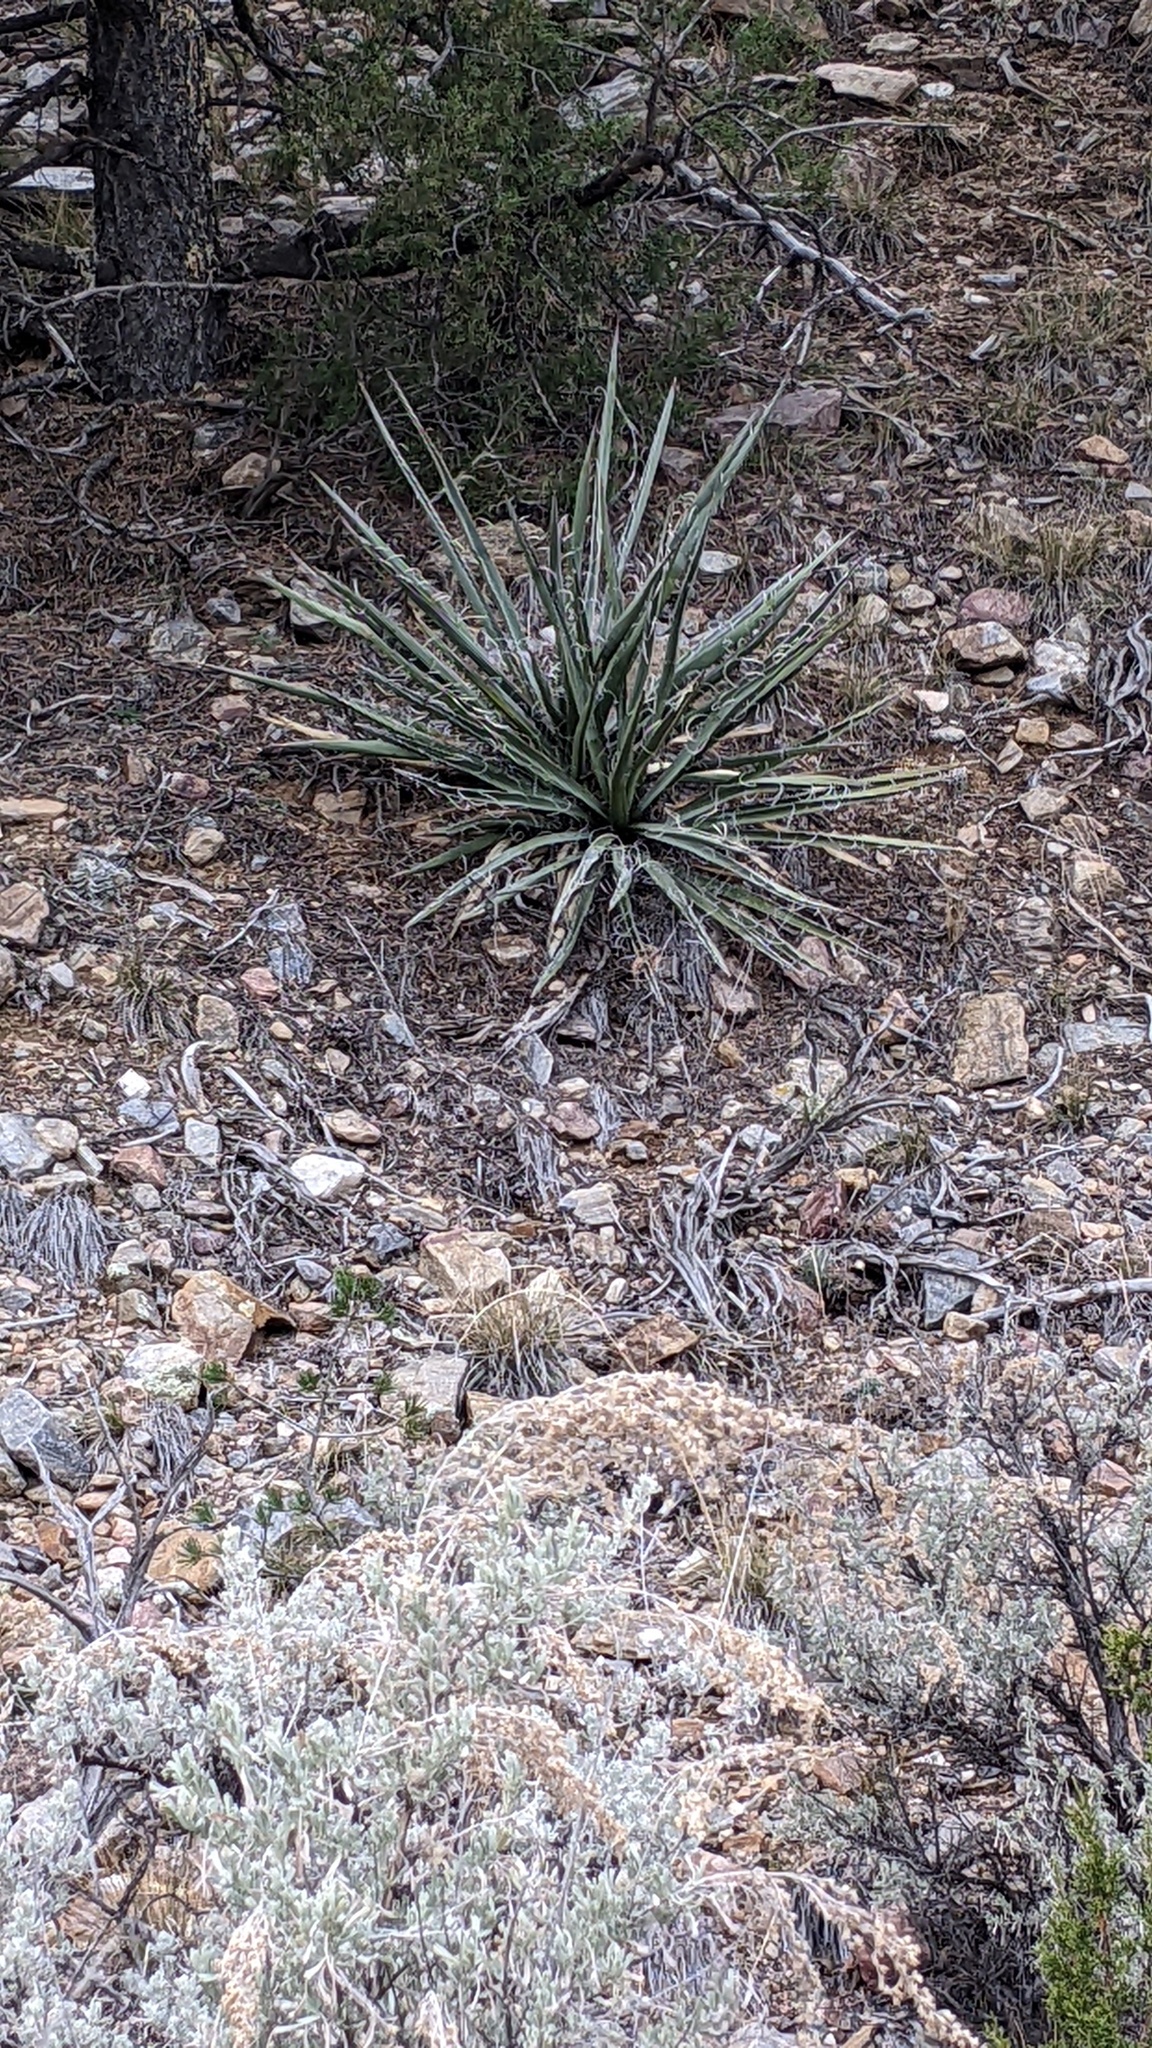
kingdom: Plantae
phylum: Tracheophyta
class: Liliopsida
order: Asparagales
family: Asparagaceae
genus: Yucca
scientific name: Yucca baccata
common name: Banana yucca
